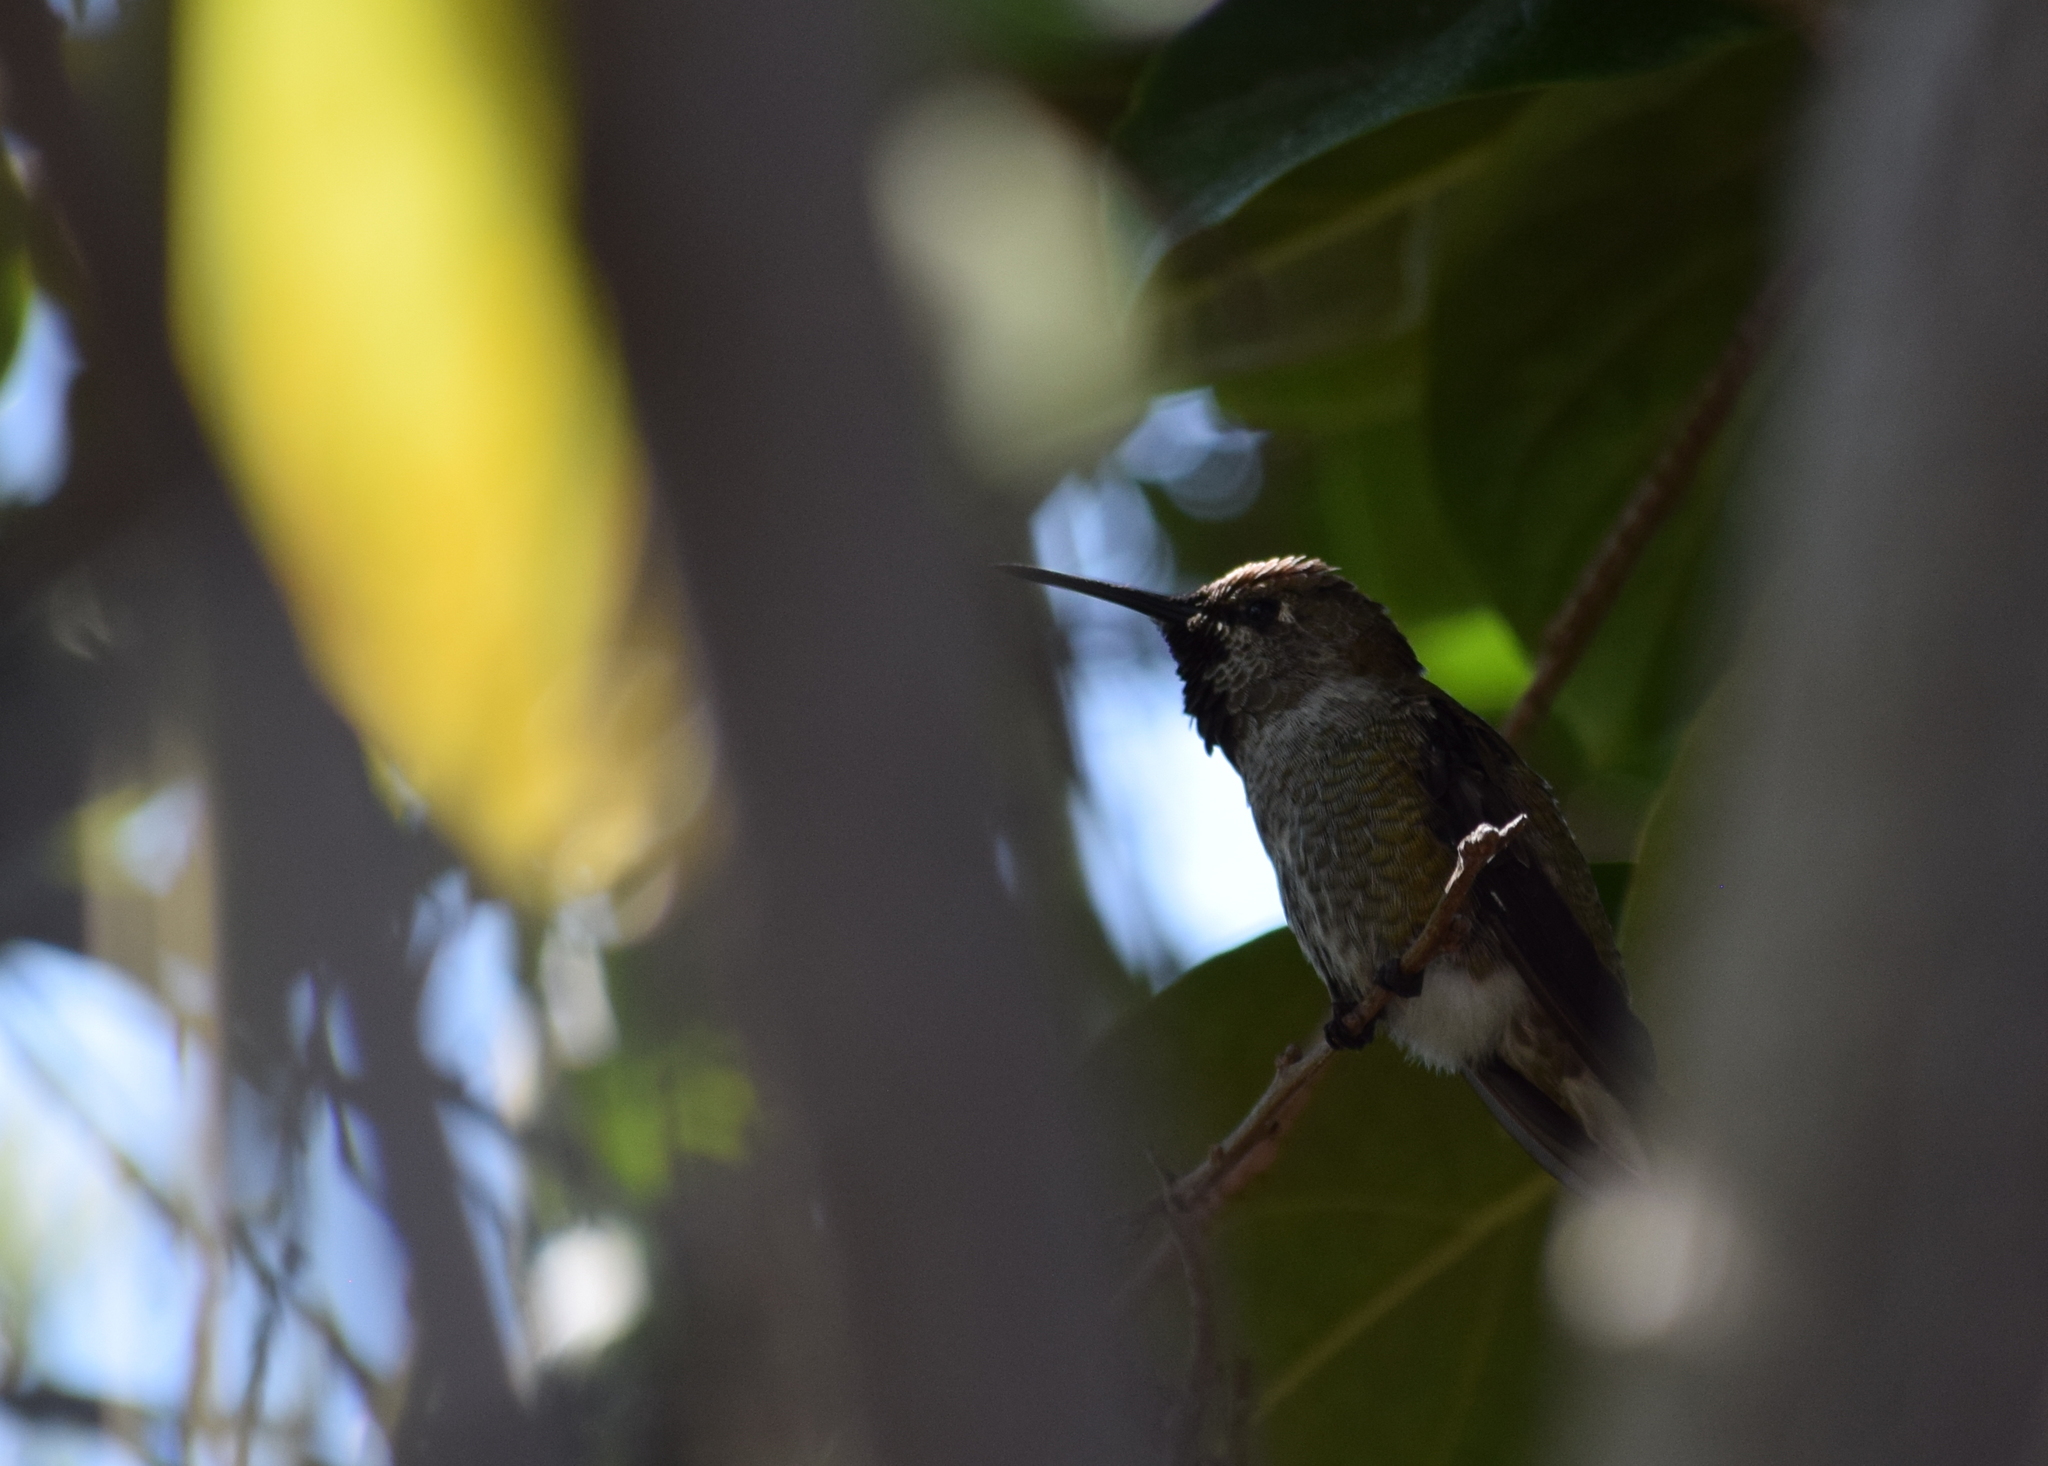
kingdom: Animalia
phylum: Chordata
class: Aves
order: Apodiformes
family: Trochilidae
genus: Calypte
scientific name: Calypte anna
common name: Anna's hummingbird
